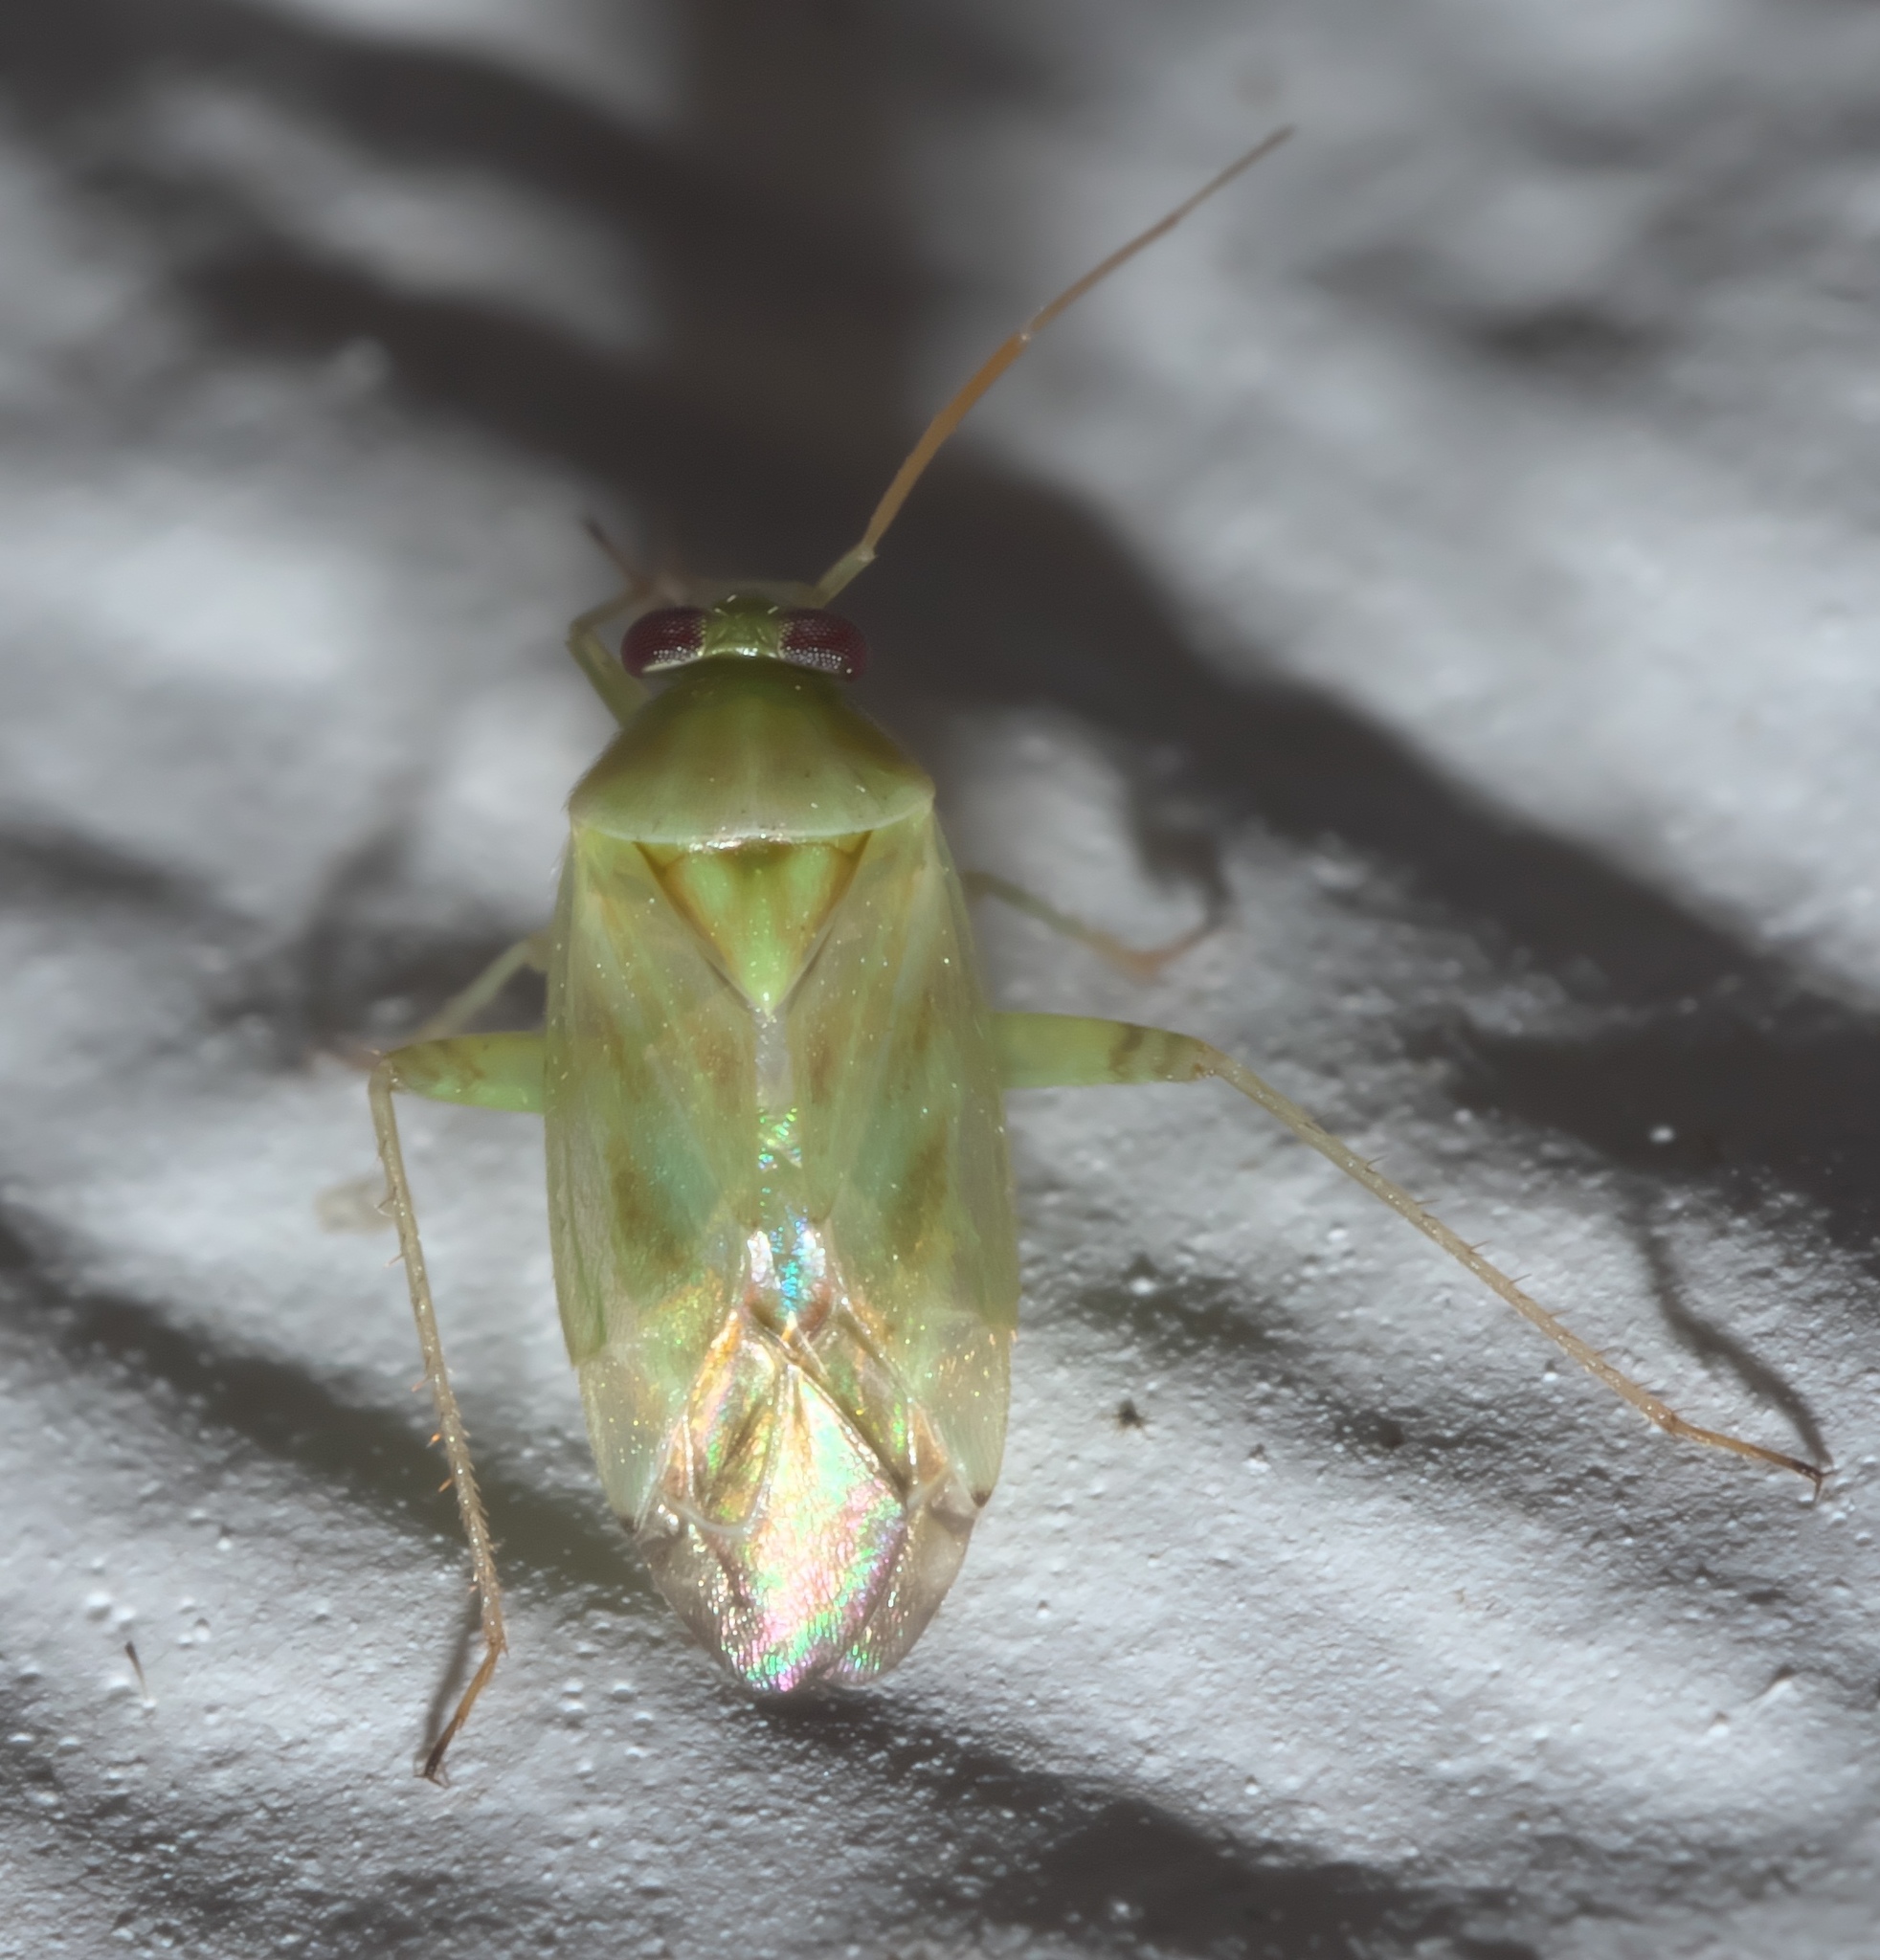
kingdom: Animalia
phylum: Arthropoda
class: Insecta
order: Hemiptera
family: Miridae
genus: Taylorilygus
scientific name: Taylorilygus apicalis
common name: Plant bug
